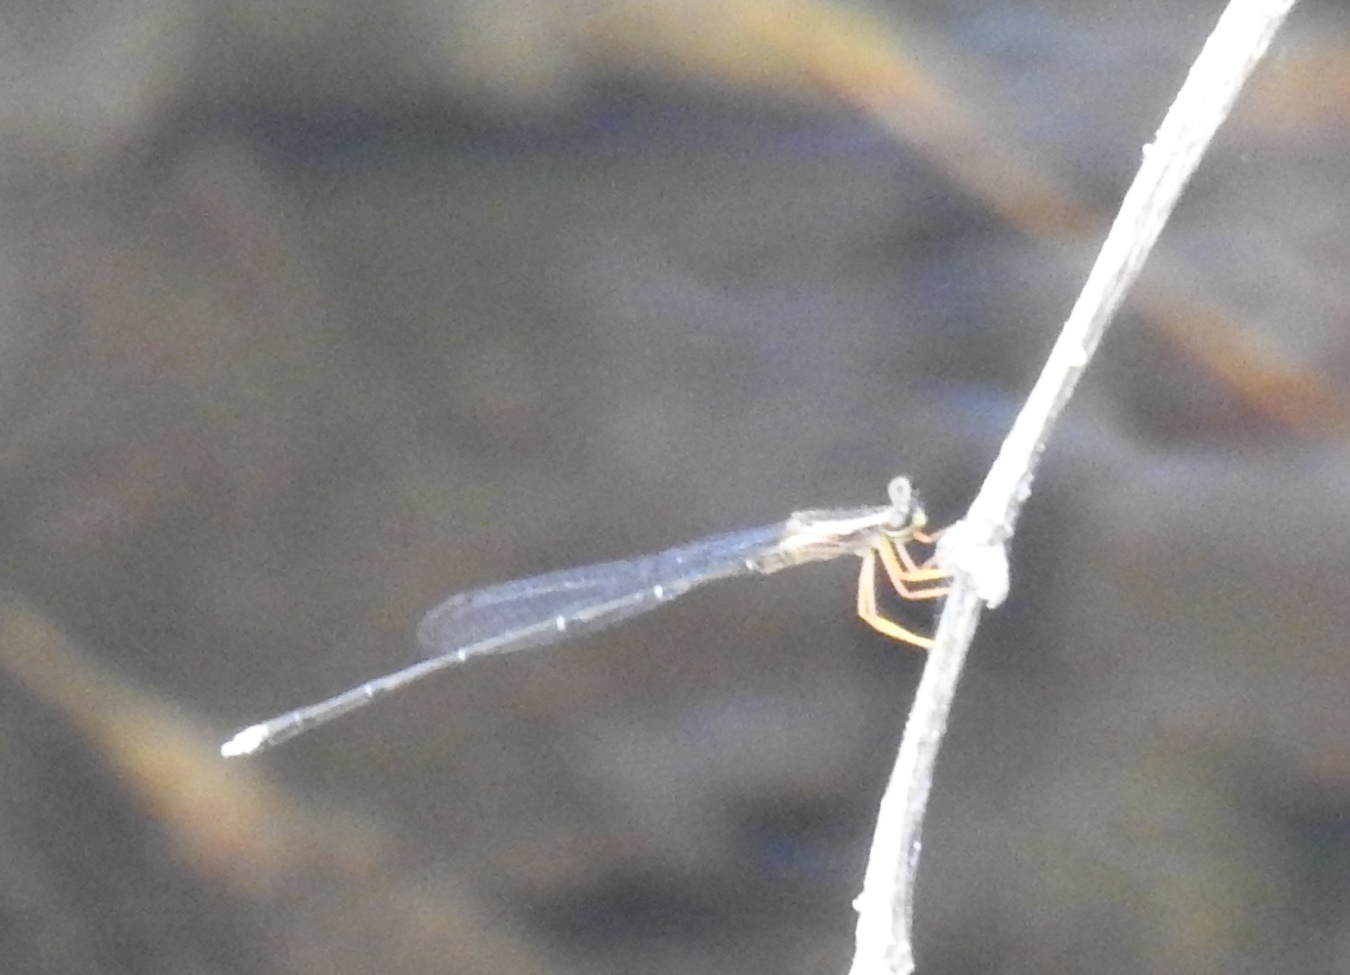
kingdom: Animalia
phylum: Arthropoda
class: Insecta
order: Odonata
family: Platycnemididae
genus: Copera
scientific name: Copera marginipes
